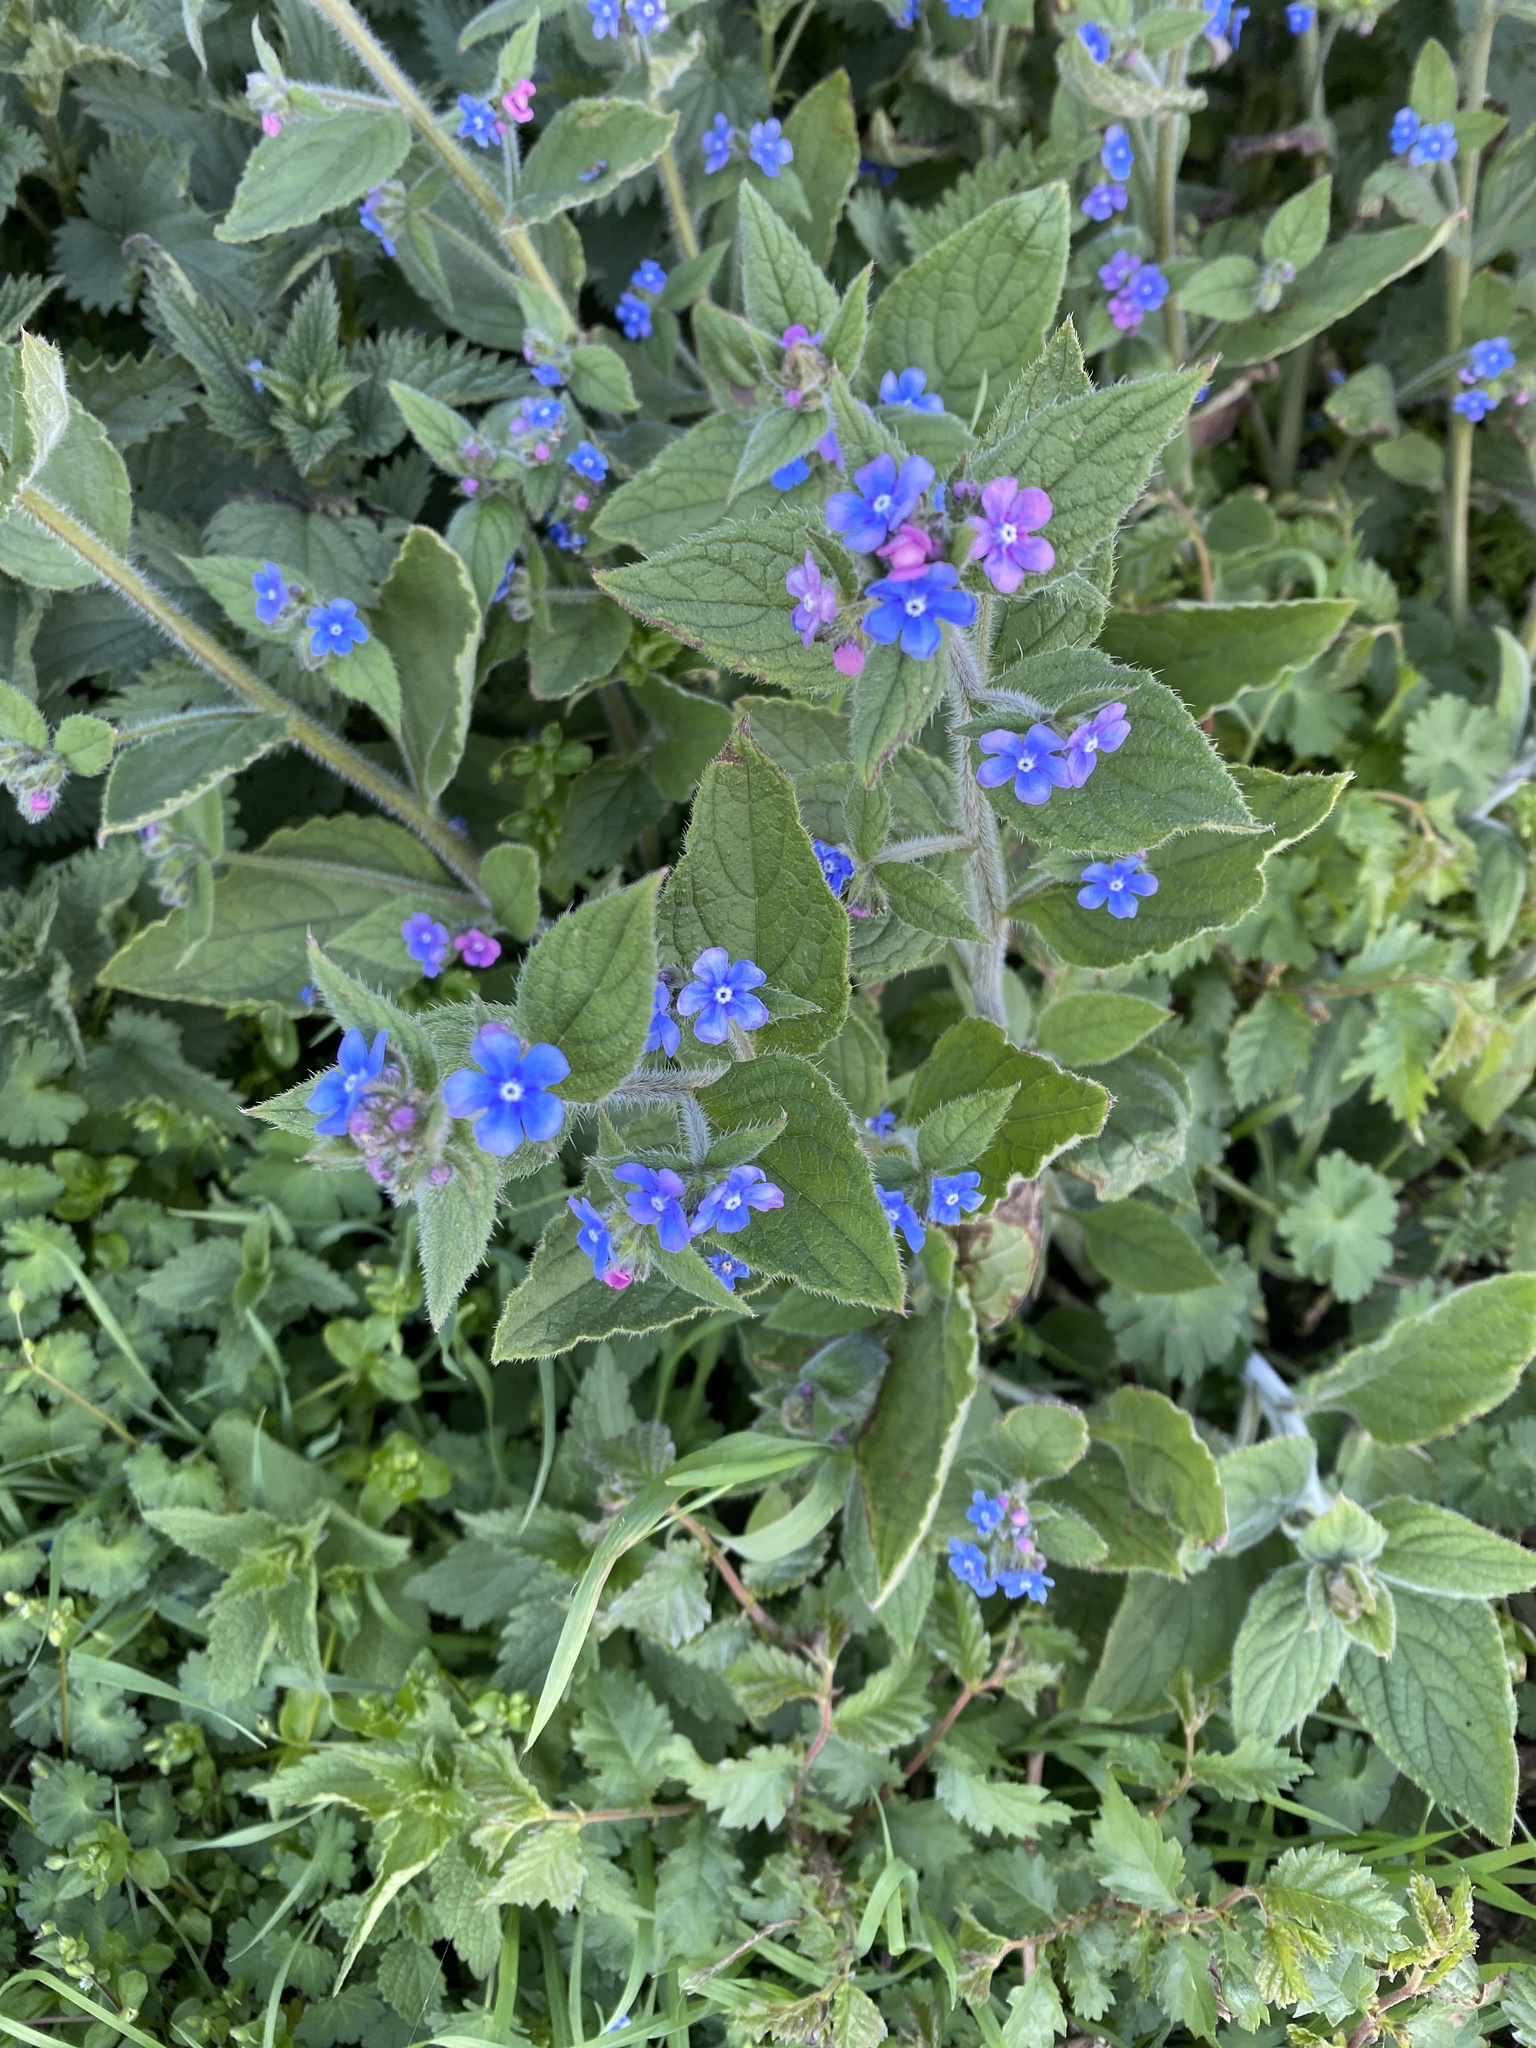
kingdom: Plantae
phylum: Tracheophyta
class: Magnoliopsida
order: Boraginales
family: Boraginaceae
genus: Pentaglottis
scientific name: Pentaglottis sempervirens
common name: Green alkanet
